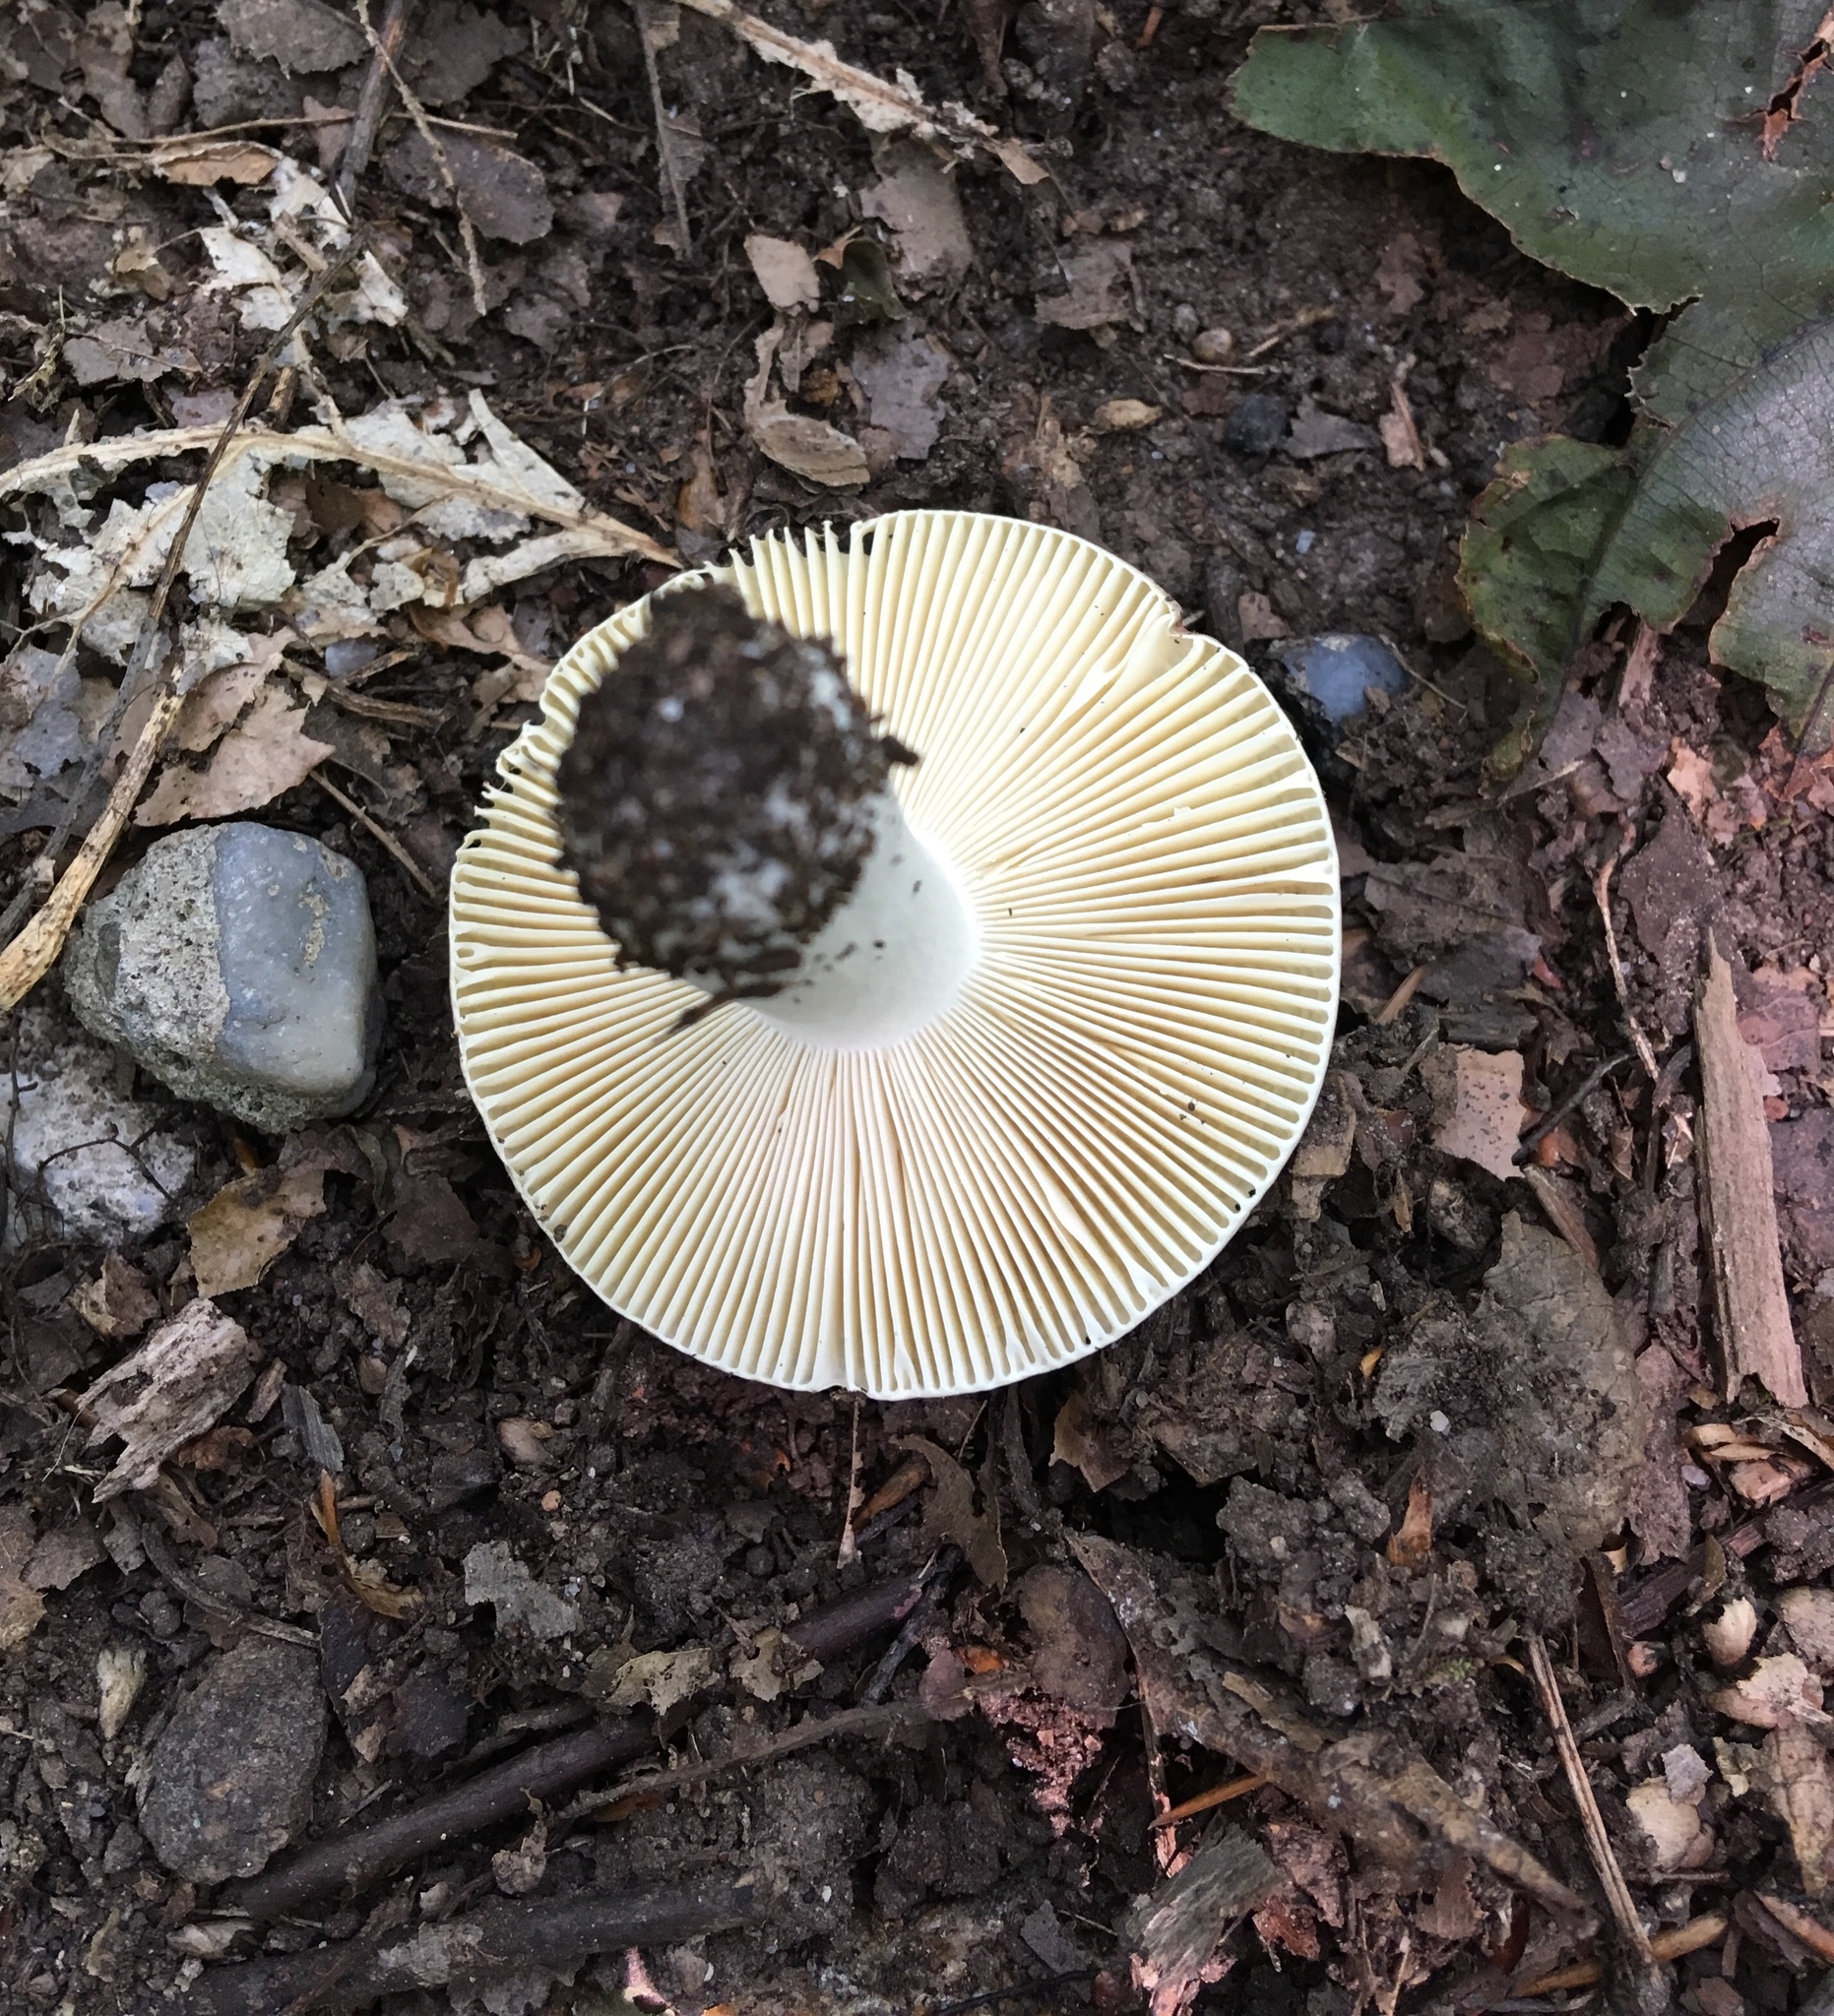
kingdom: Fungi
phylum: Basidiomycota
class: Agaricomycetes
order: Russulales
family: Russulaceae
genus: Russula
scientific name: Russula xerampelina
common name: Crab brittlegill
